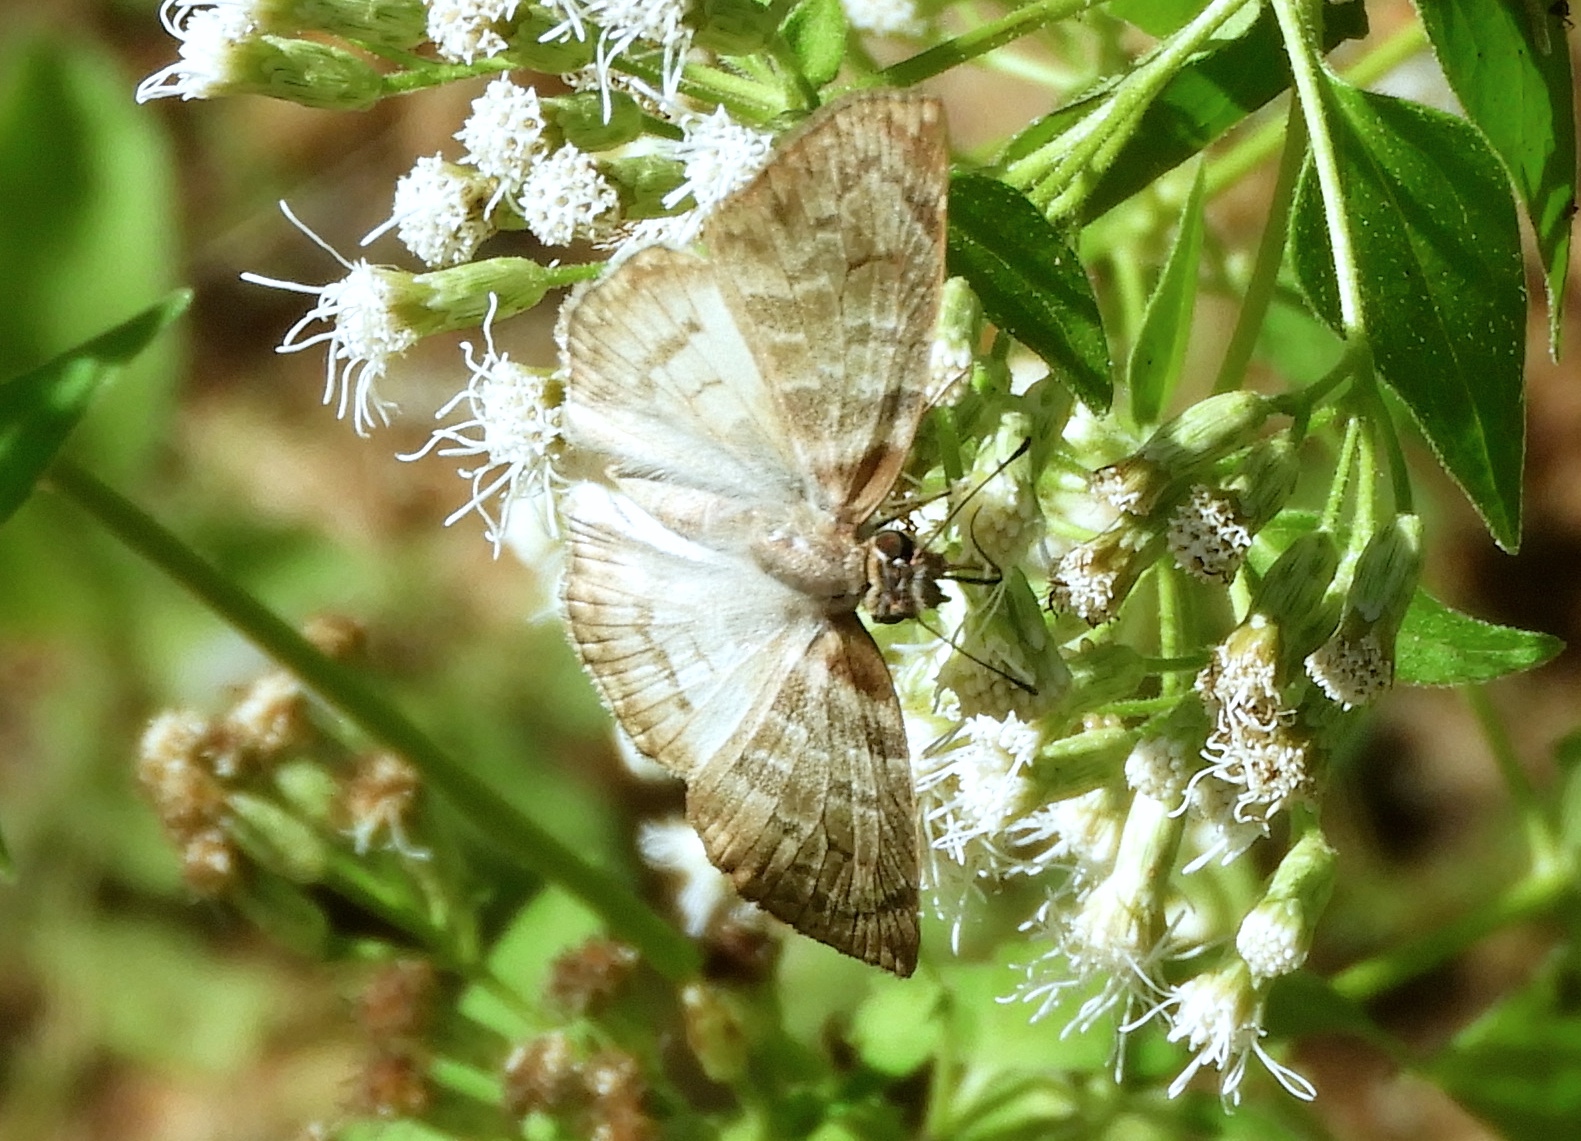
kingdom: Animalia
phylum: Arthropoda
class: Insecta
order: Lepidoptera
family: Hesperiidae
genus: Mylon
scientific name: Mylon pelopidas
